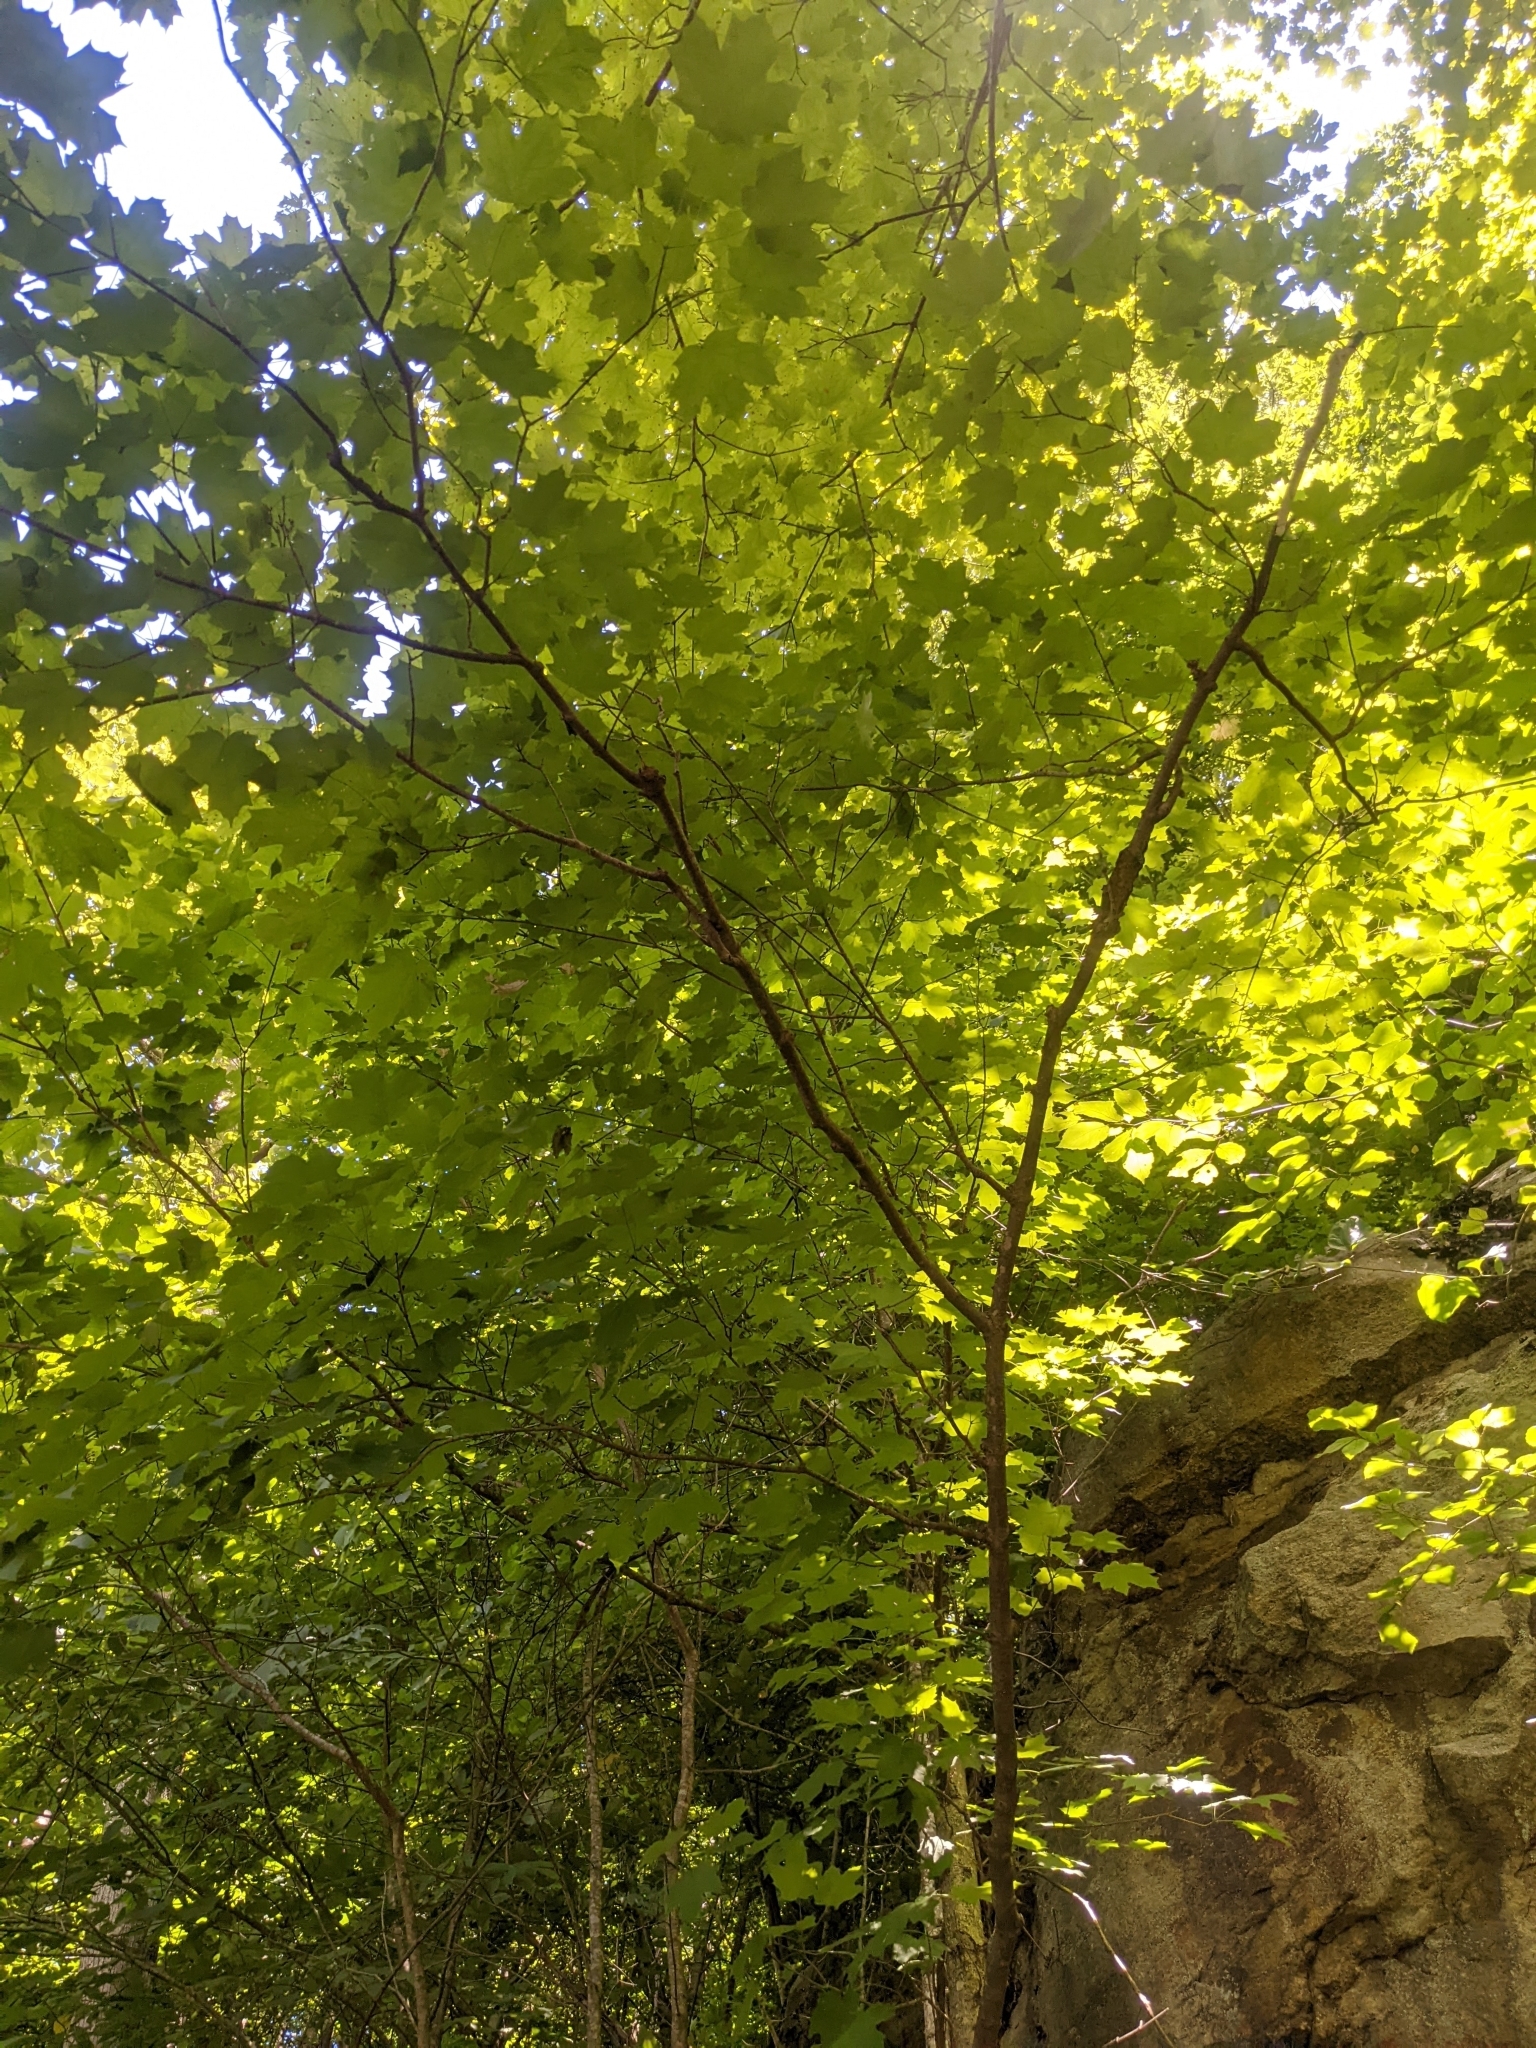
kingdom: Plantae
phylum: Tracheophyta
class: Magnoliopsida
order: Sapindales
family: Sapindaceae
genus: Acer
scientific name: Acer saccharum
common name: Sugar maple
